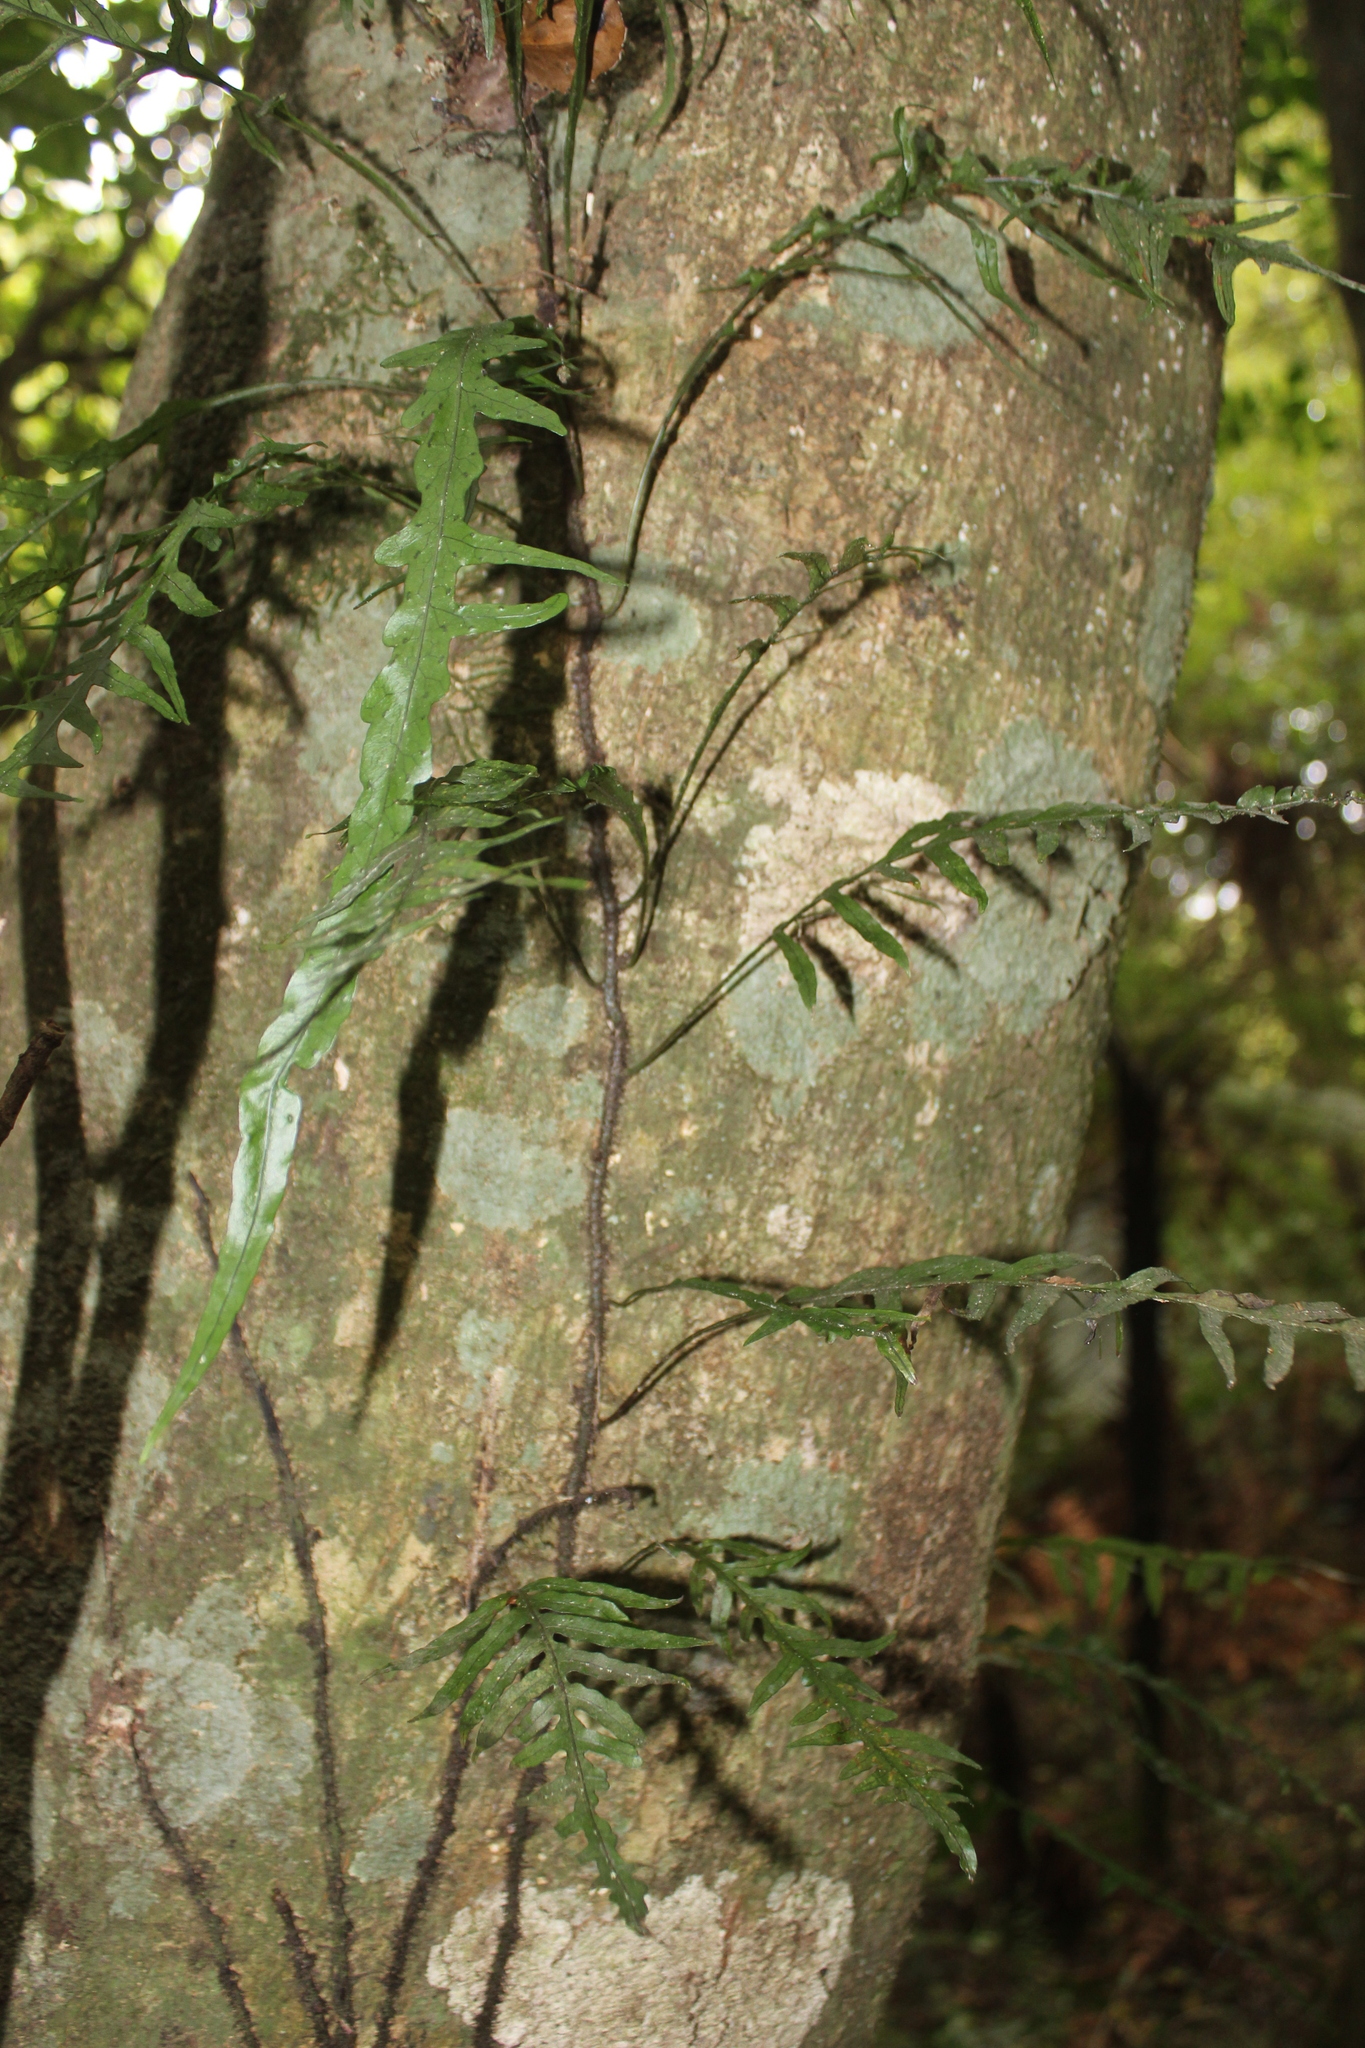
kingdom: Plantae
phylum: Tracheophyta
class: Polypodiopsida
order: Polypodiales
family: Polypodiaceae
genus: Lecanopteris
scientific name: Lecanopteris scandens
